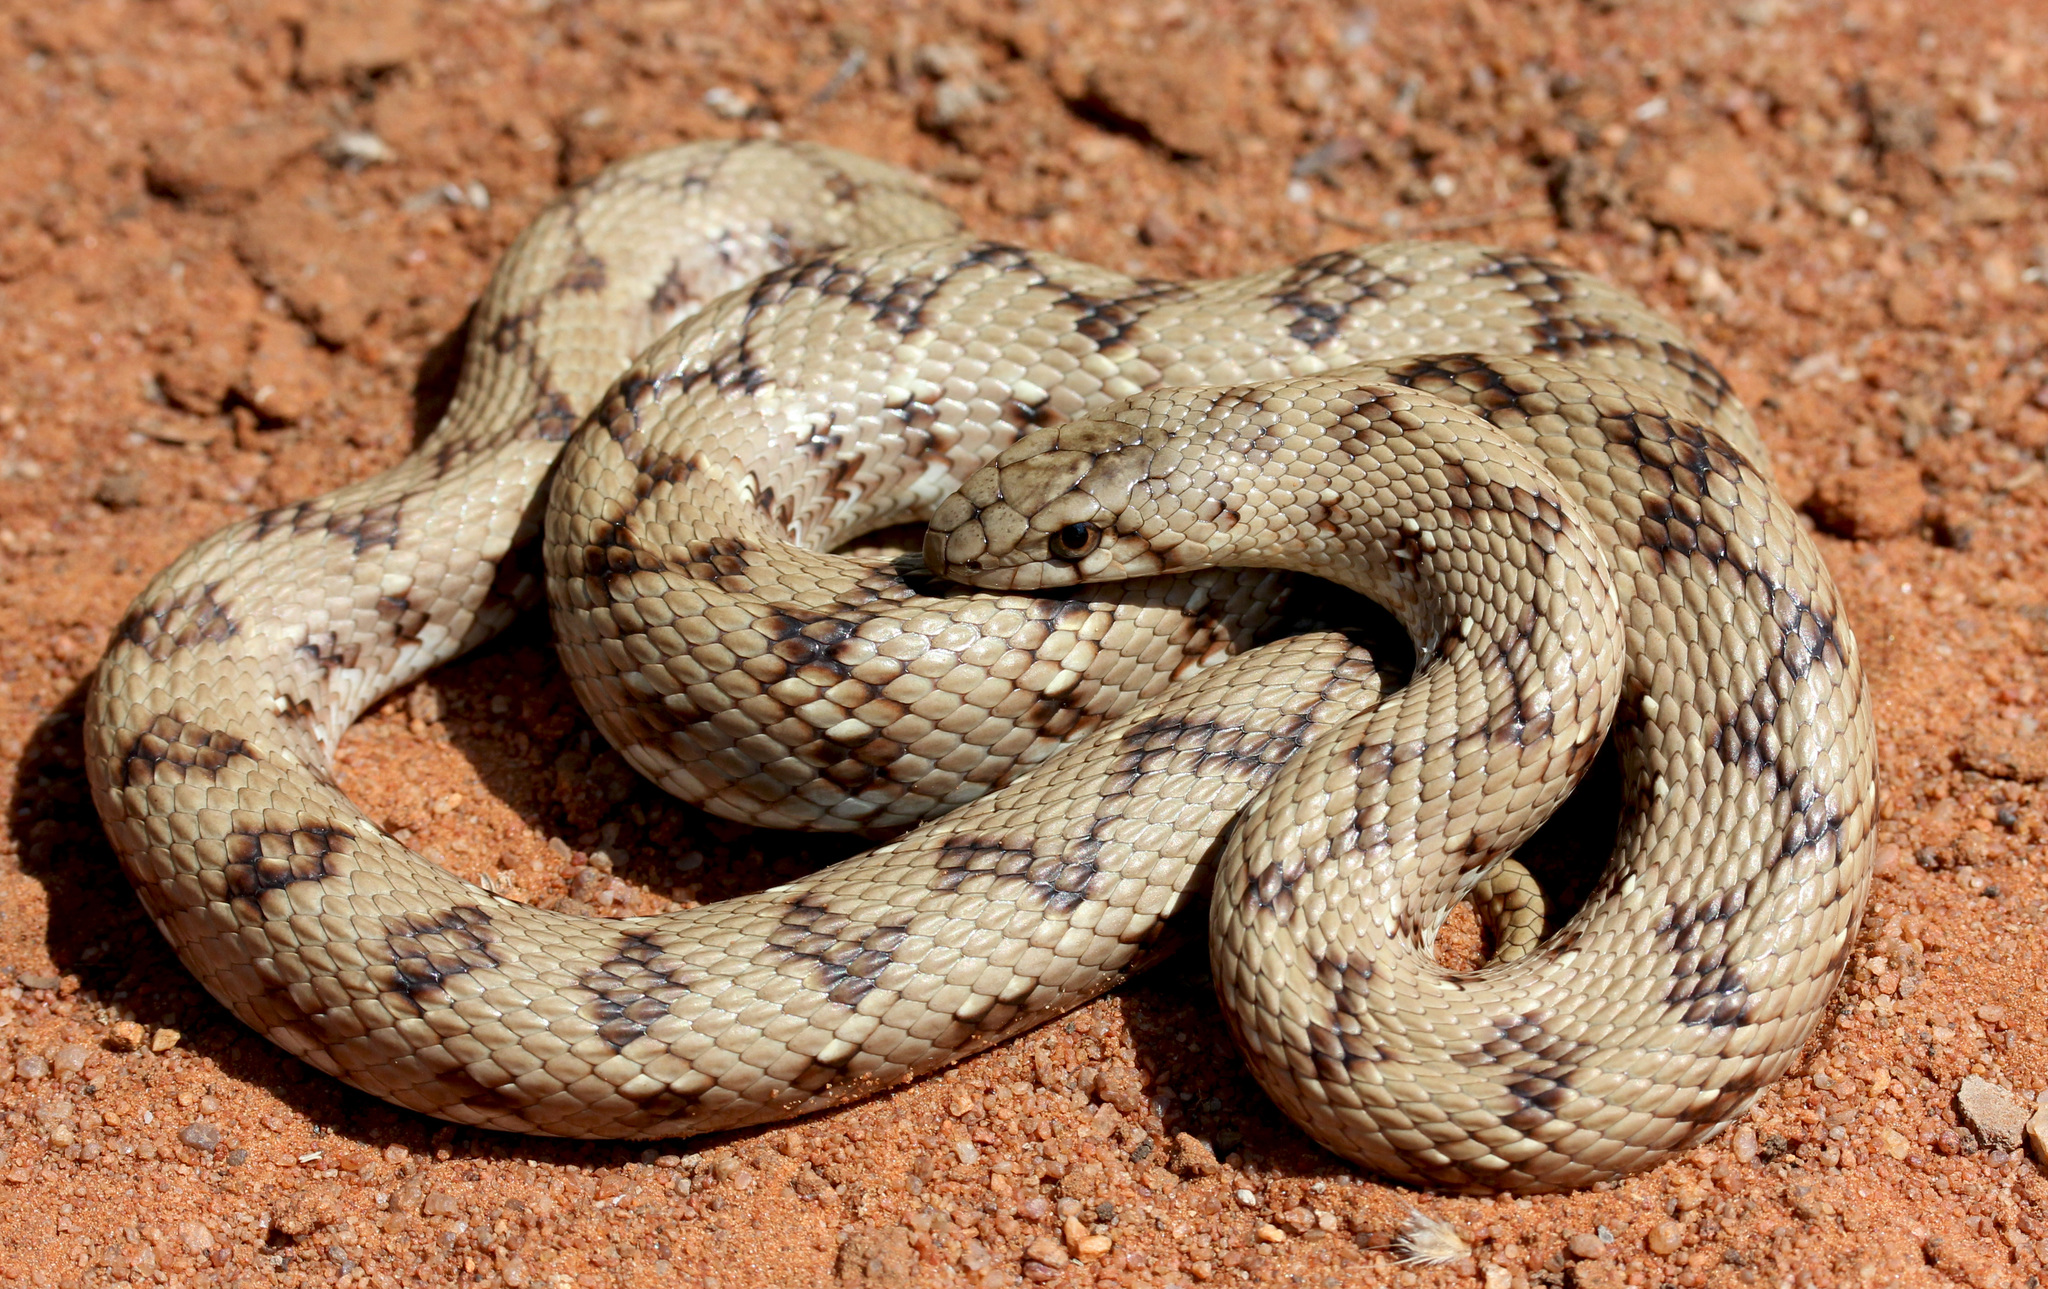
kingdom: Animalia
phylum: Chordata
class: Squamata
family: Pseudaspididae
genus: Pseudaspis
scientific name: Pseudaspis cana
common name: Mole snake
